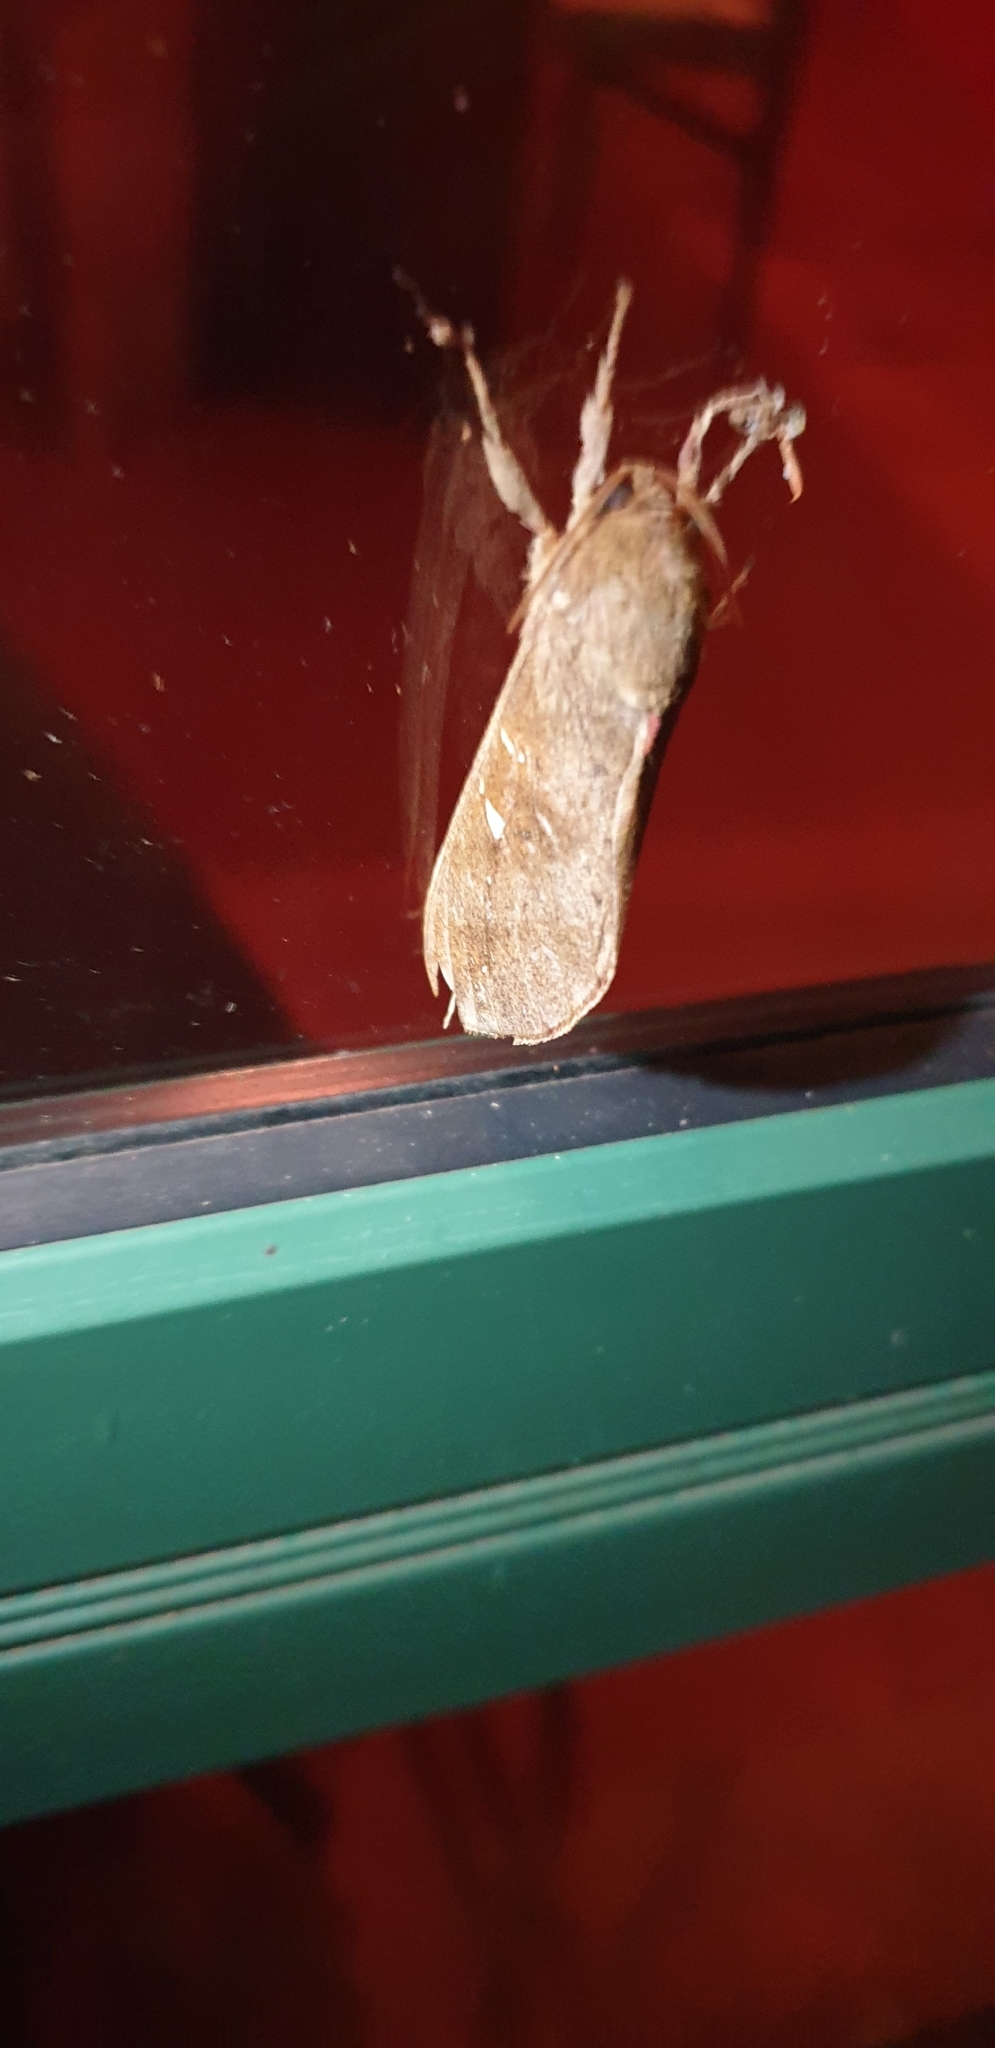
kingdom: Animalia
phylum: Arthropoda
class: Insecta
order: Lepidoptera
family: Hepialidae
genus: Oxycanus
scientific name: Oxycanus beltista
